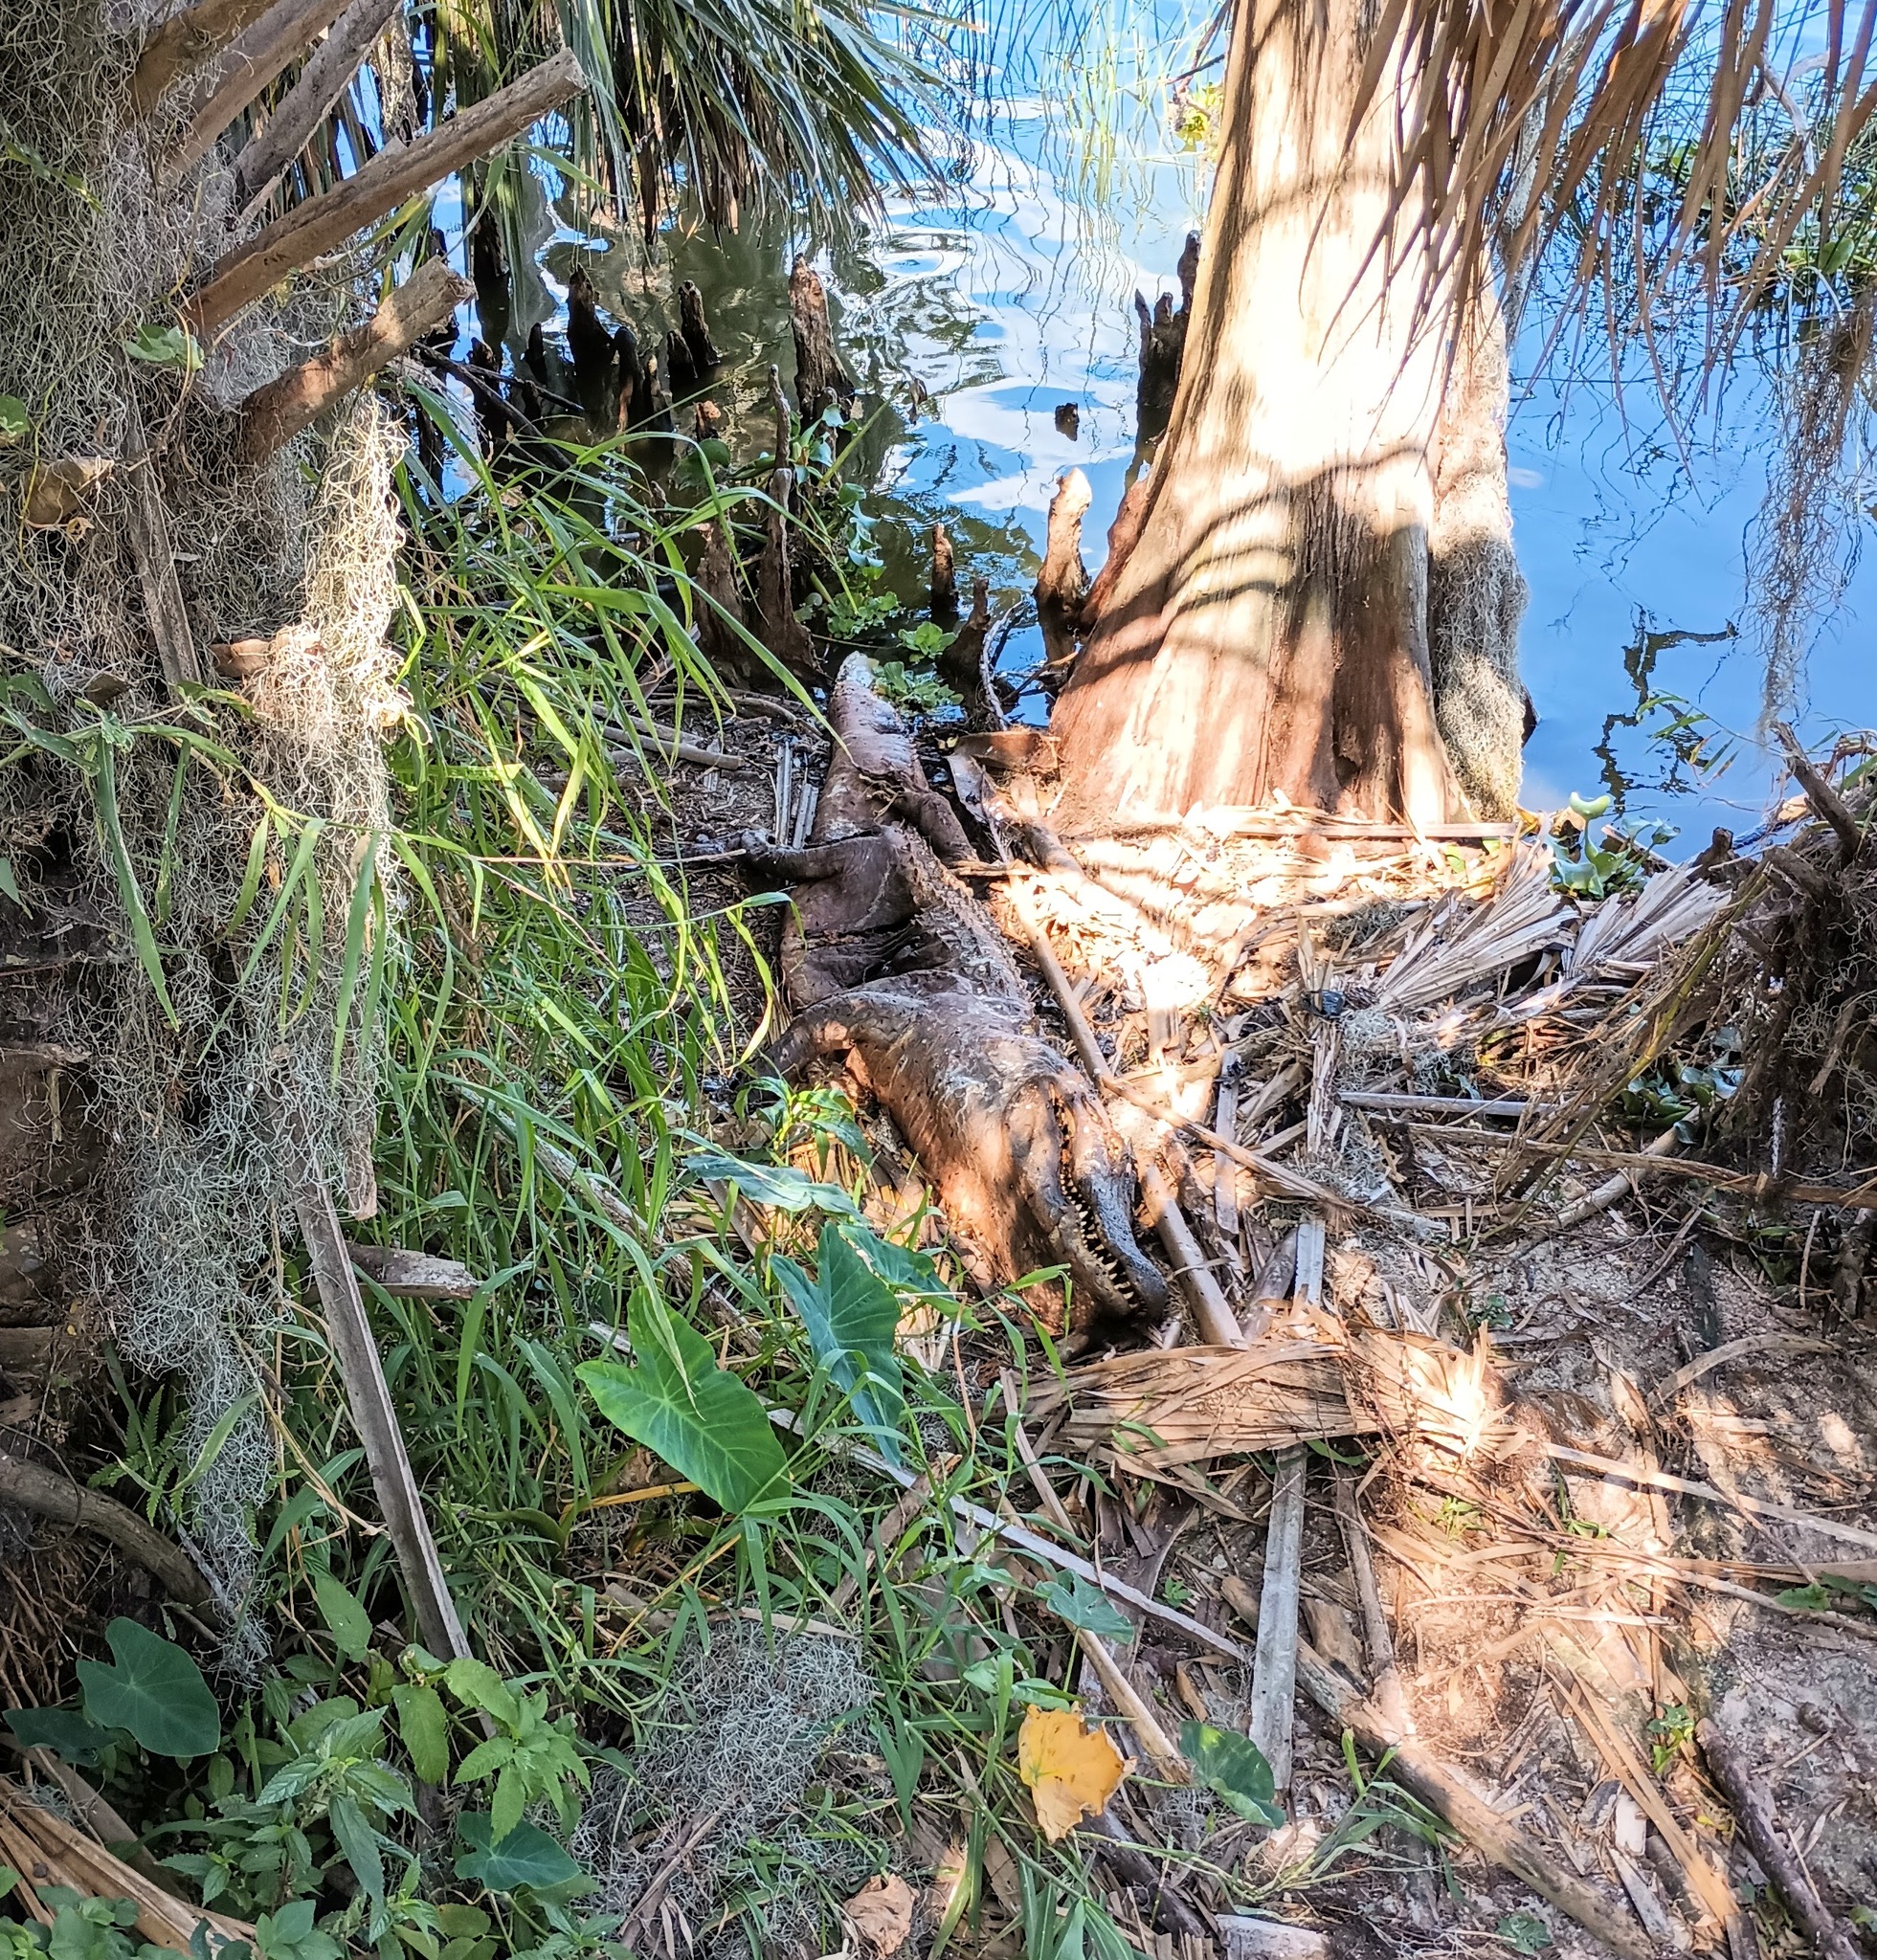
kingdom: Animalia
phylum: Chordata
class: Crocodylia
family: Alligatoridae
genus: Alligator
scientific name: Alligator mississippiensis
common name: American alligator
